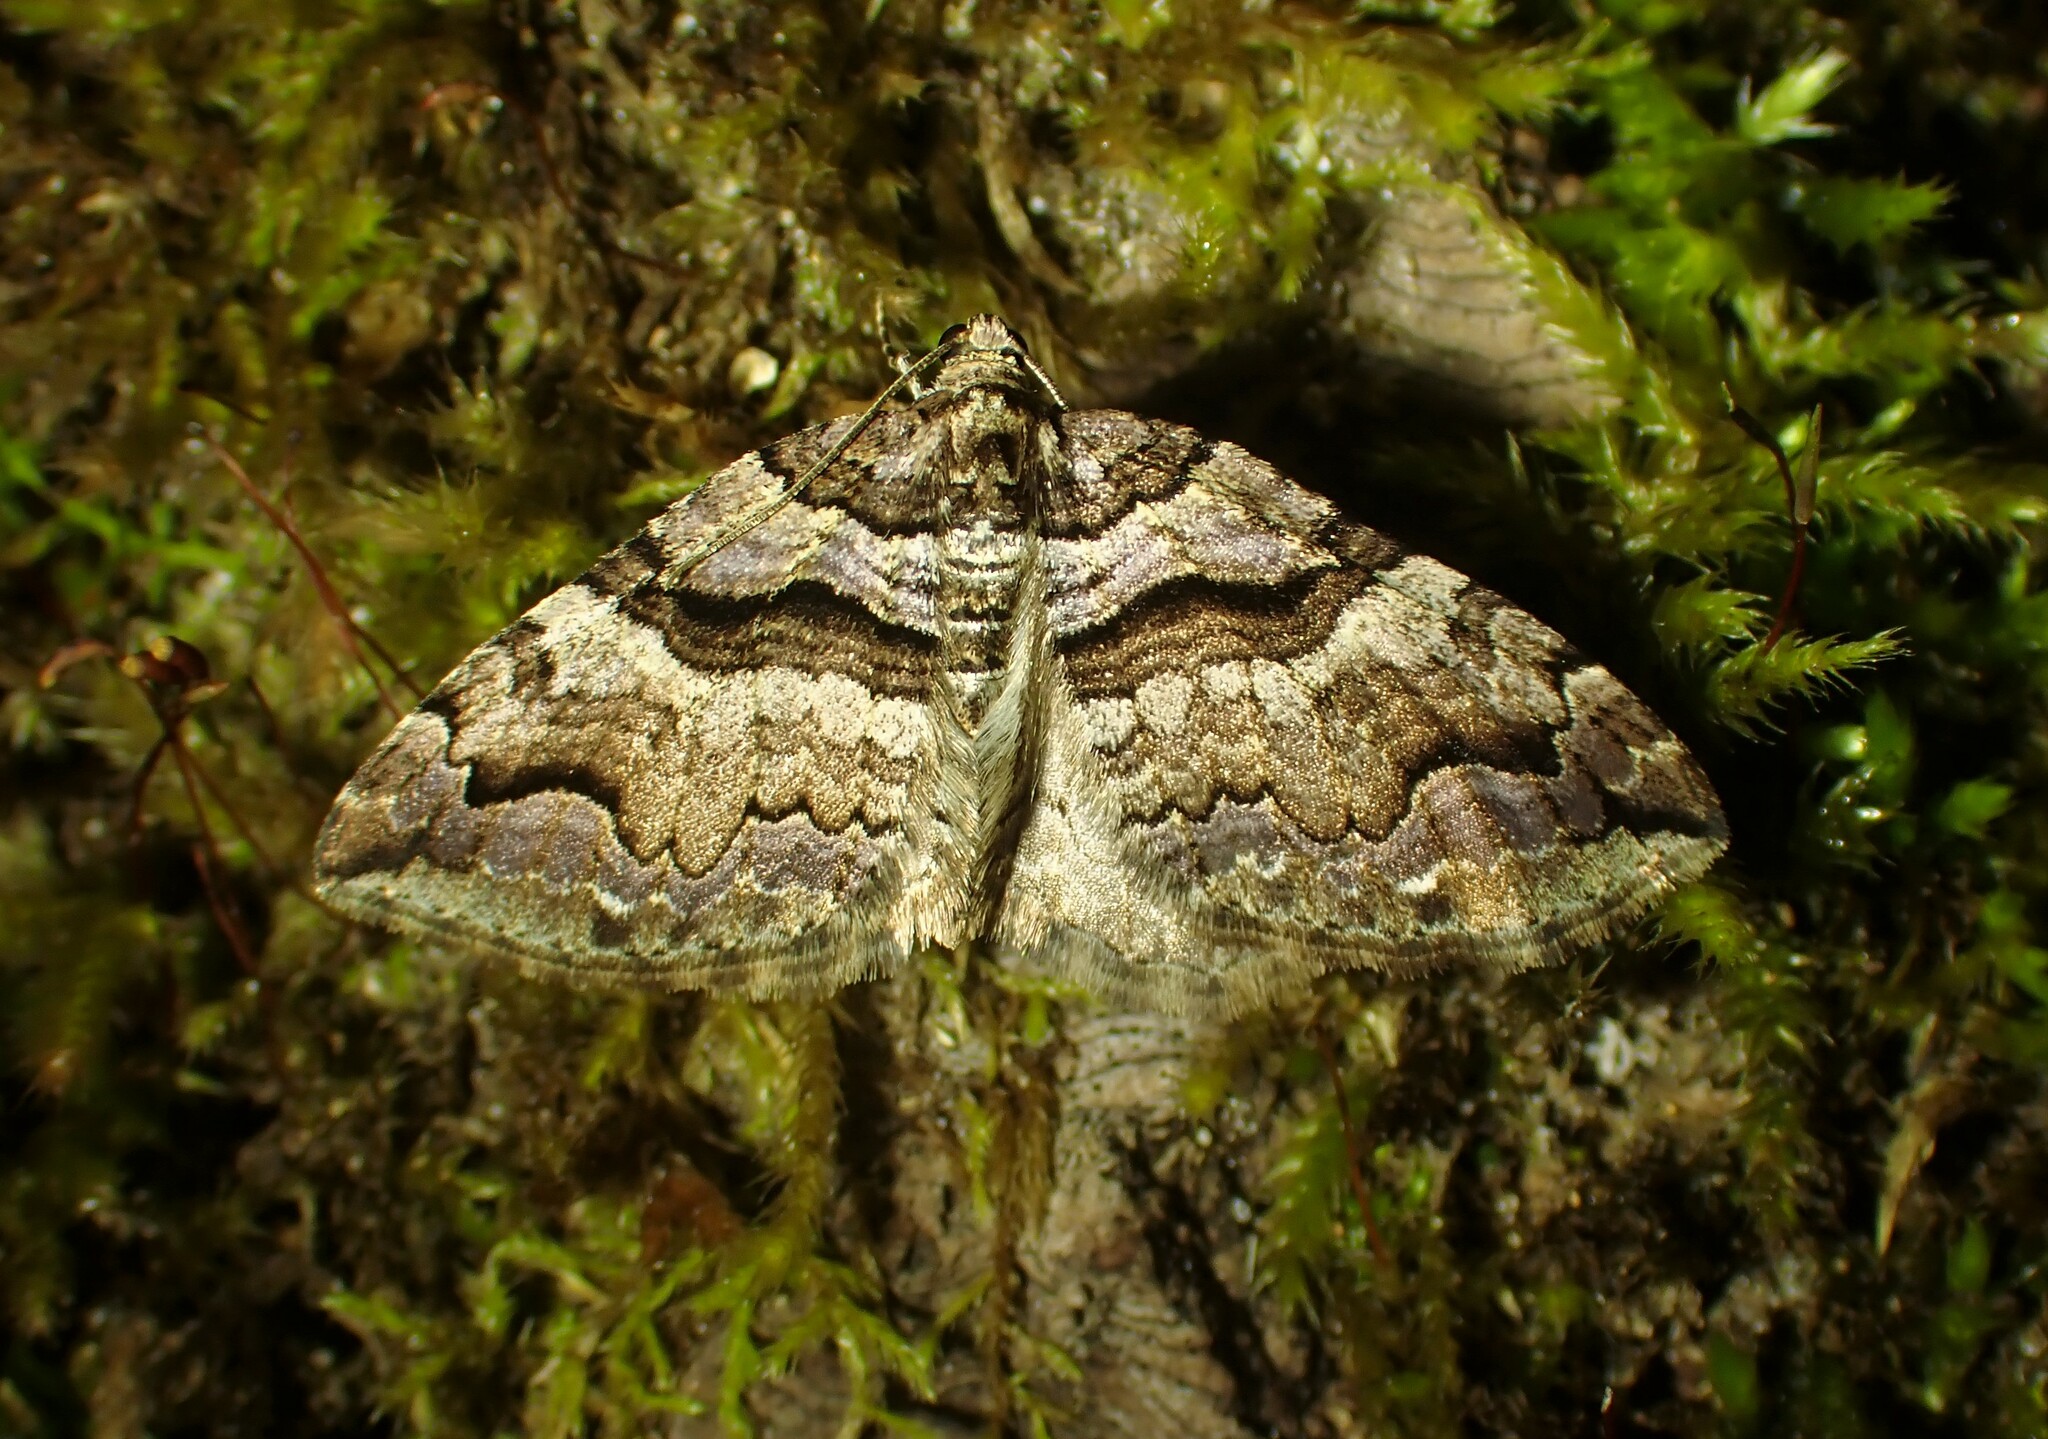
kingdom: Animalia
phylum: Arthropoda
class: Insecta
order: Lepidoptera
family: Geometridae
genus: Anticlea
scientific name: Anticlea vasiliata
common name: Variable carpet
